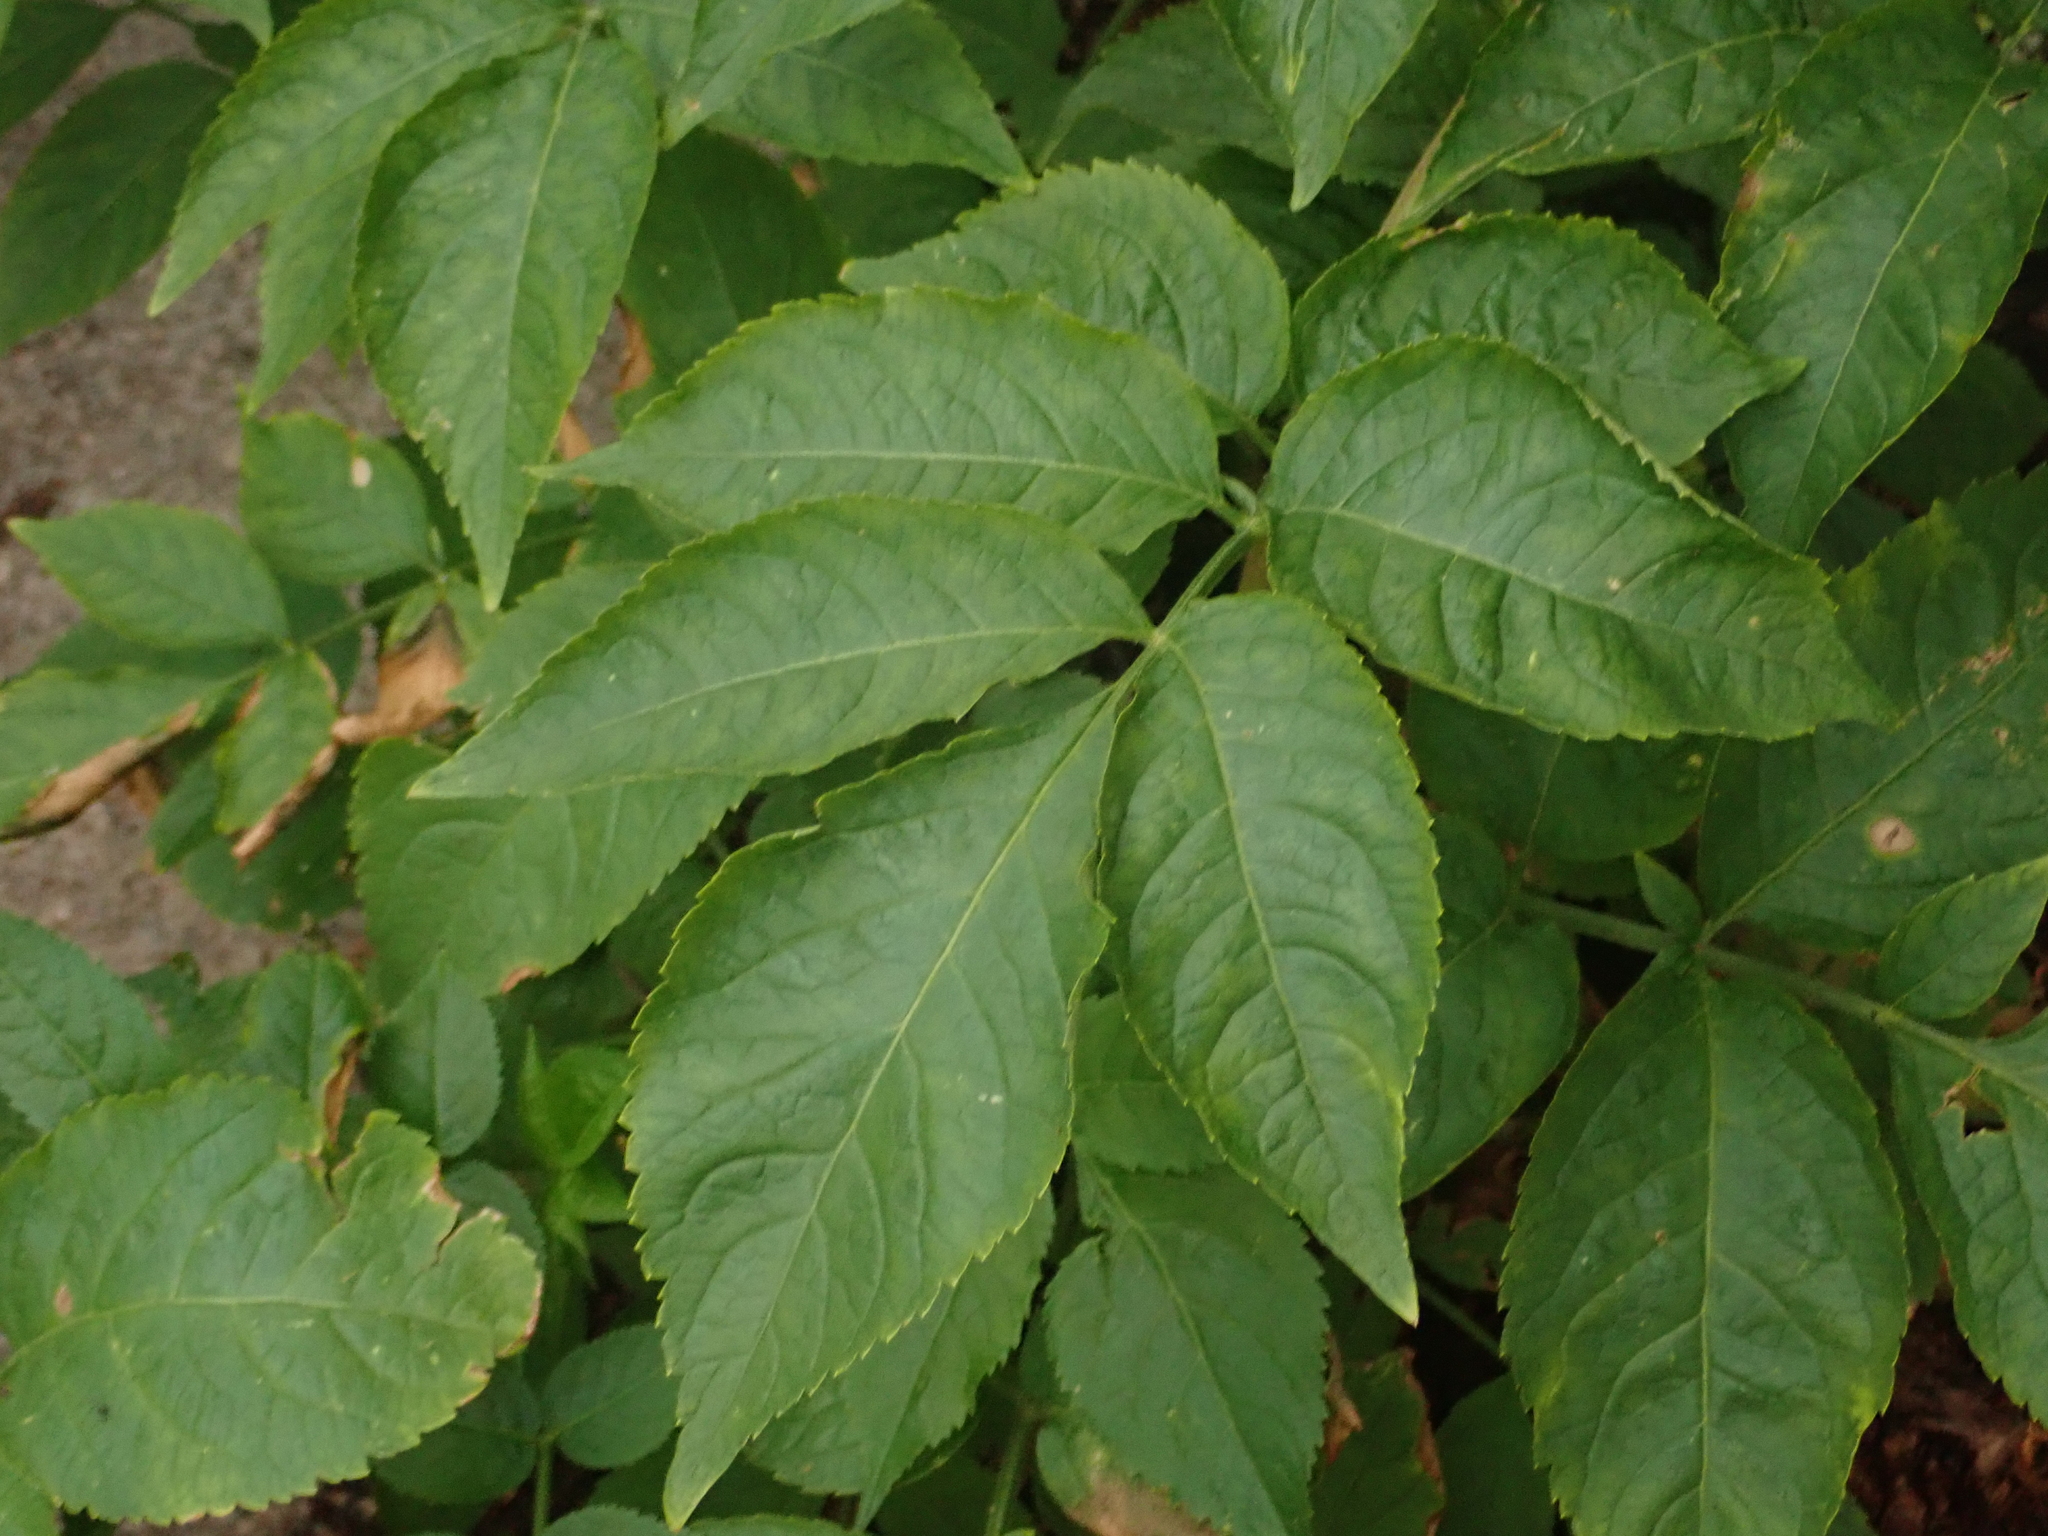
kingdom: Plantae
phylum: Tracheophyta
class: Magnoliopsida
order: Dipsacales
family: Viburnaceae
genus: Sambucus
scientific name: Sambucus nigra
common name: Elder
